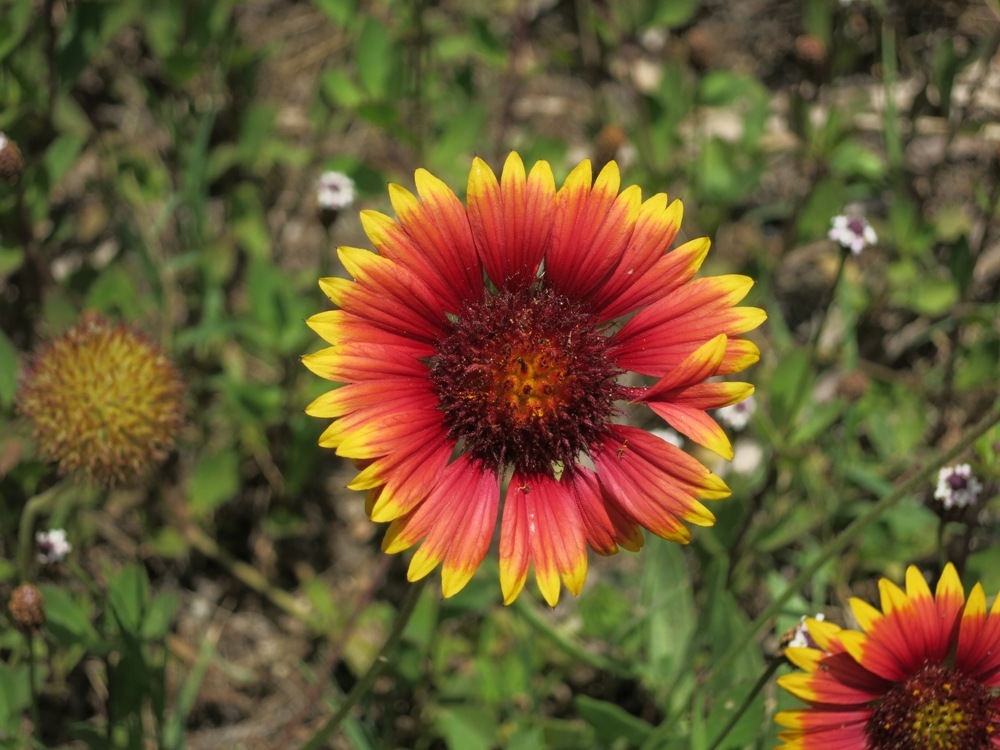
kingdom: Plantae
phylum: Tracheophyta
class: Magnoliopsida
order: Asterales
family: Asteraceae
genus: Gaillardia
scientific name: Gaillardia pulchella
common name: Firewheel
